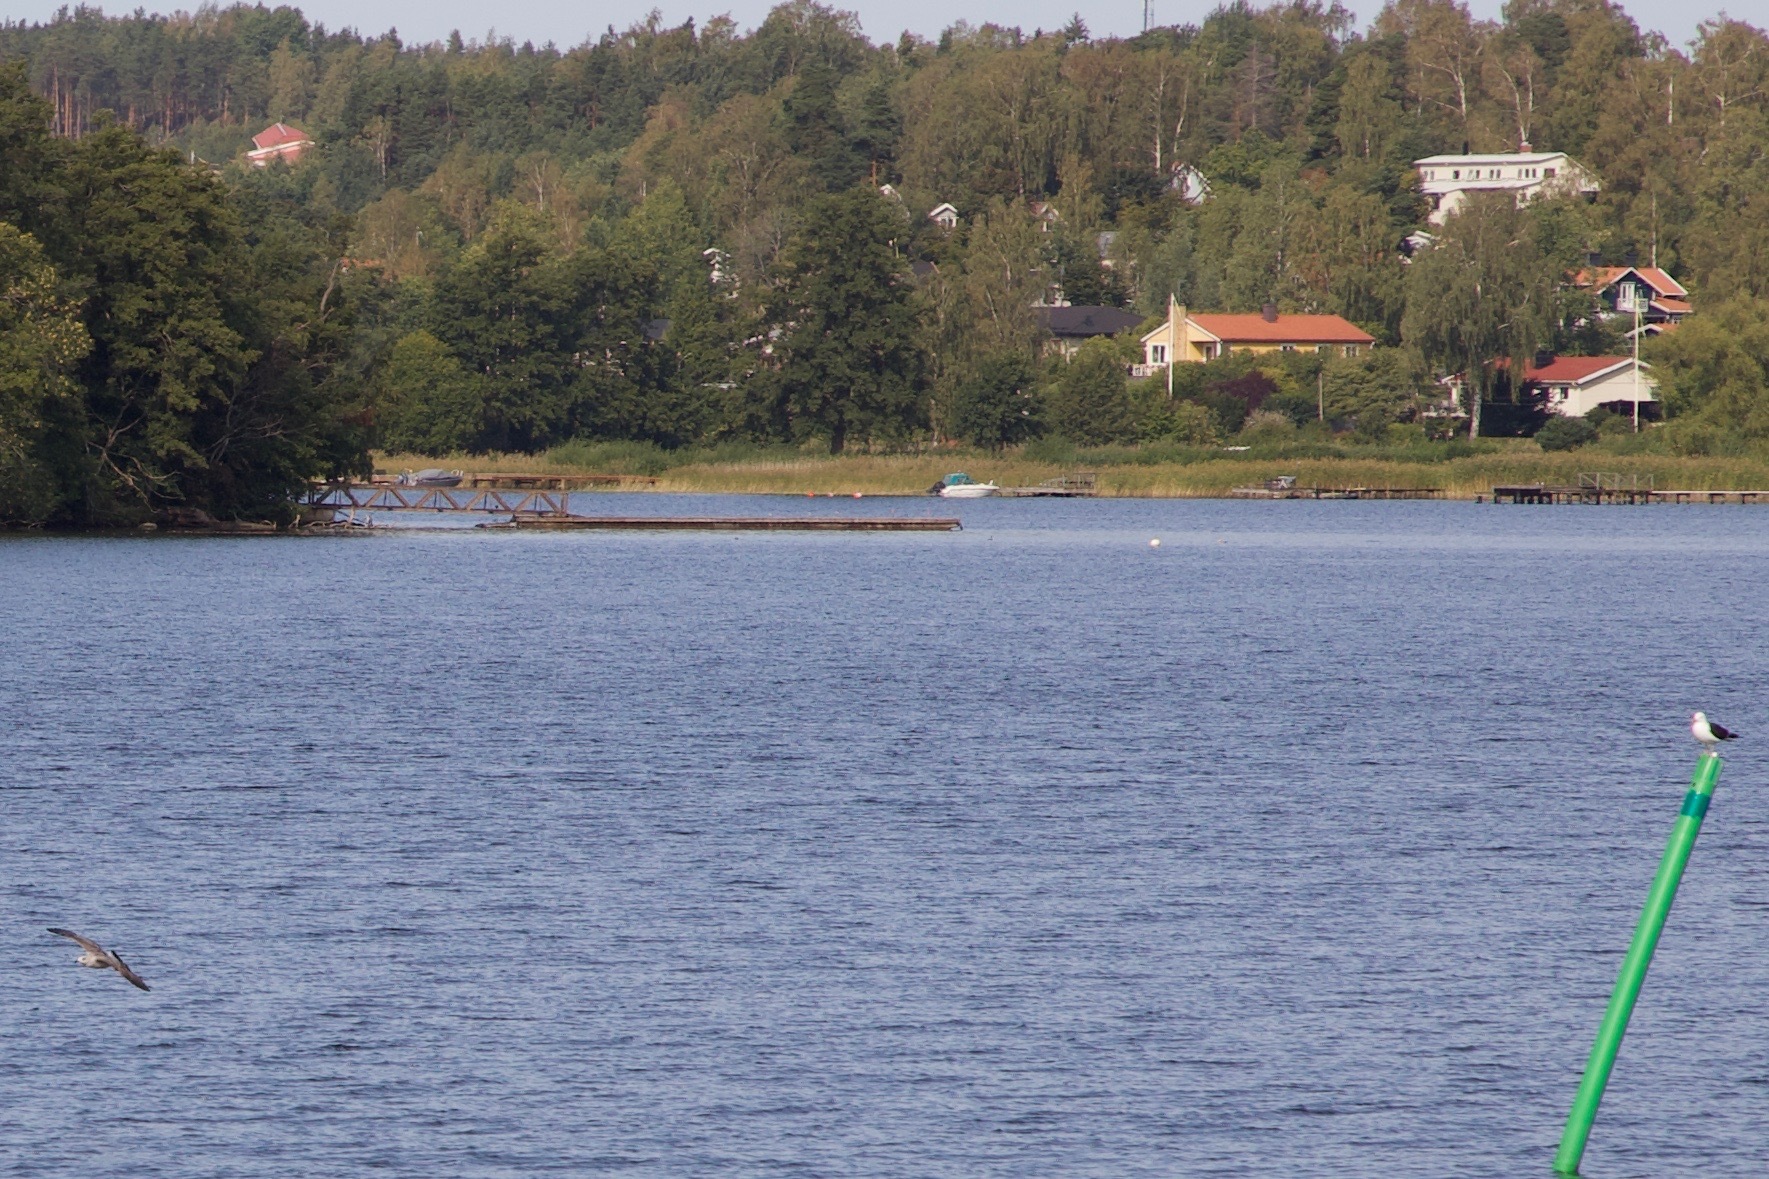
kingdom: Animalia
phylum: Chordata
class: Aves
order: Charadriiformes
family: Laridae
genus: Larus
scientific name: Larus fuscus
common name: Lesser black-backed gull
